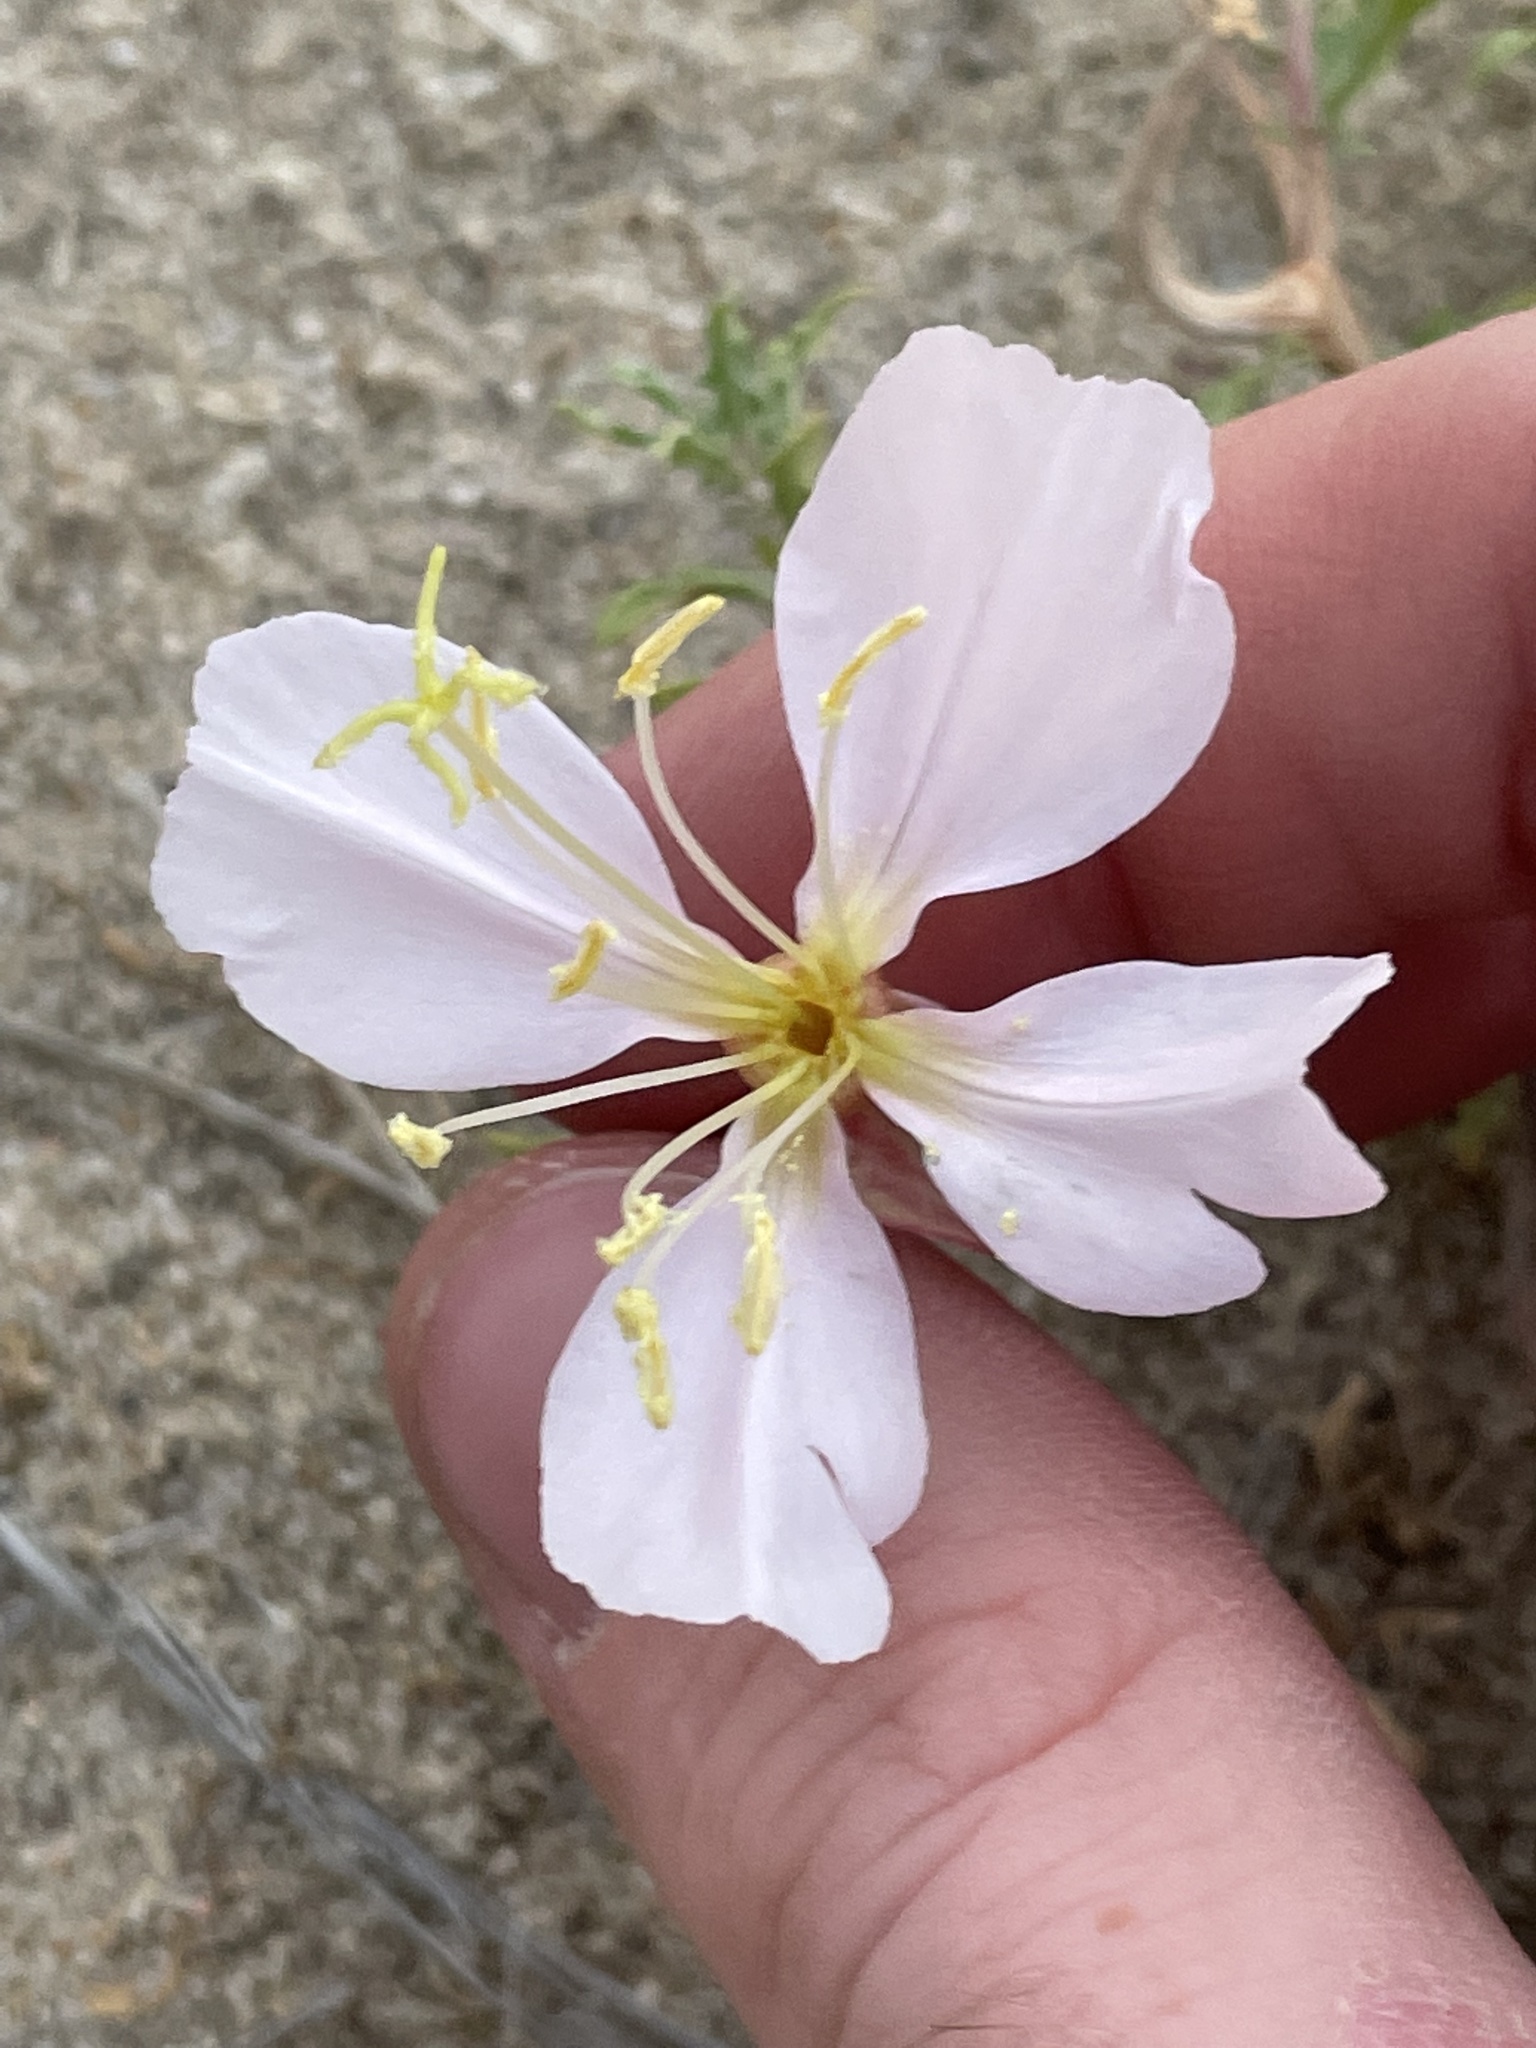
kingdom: Plantae
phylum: Tracheophyta
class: Magnoliopsida
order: Myrtales
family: Onagraceae
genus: Oenothera
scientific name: Oenothera pallida
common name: Pale evening-primrose
